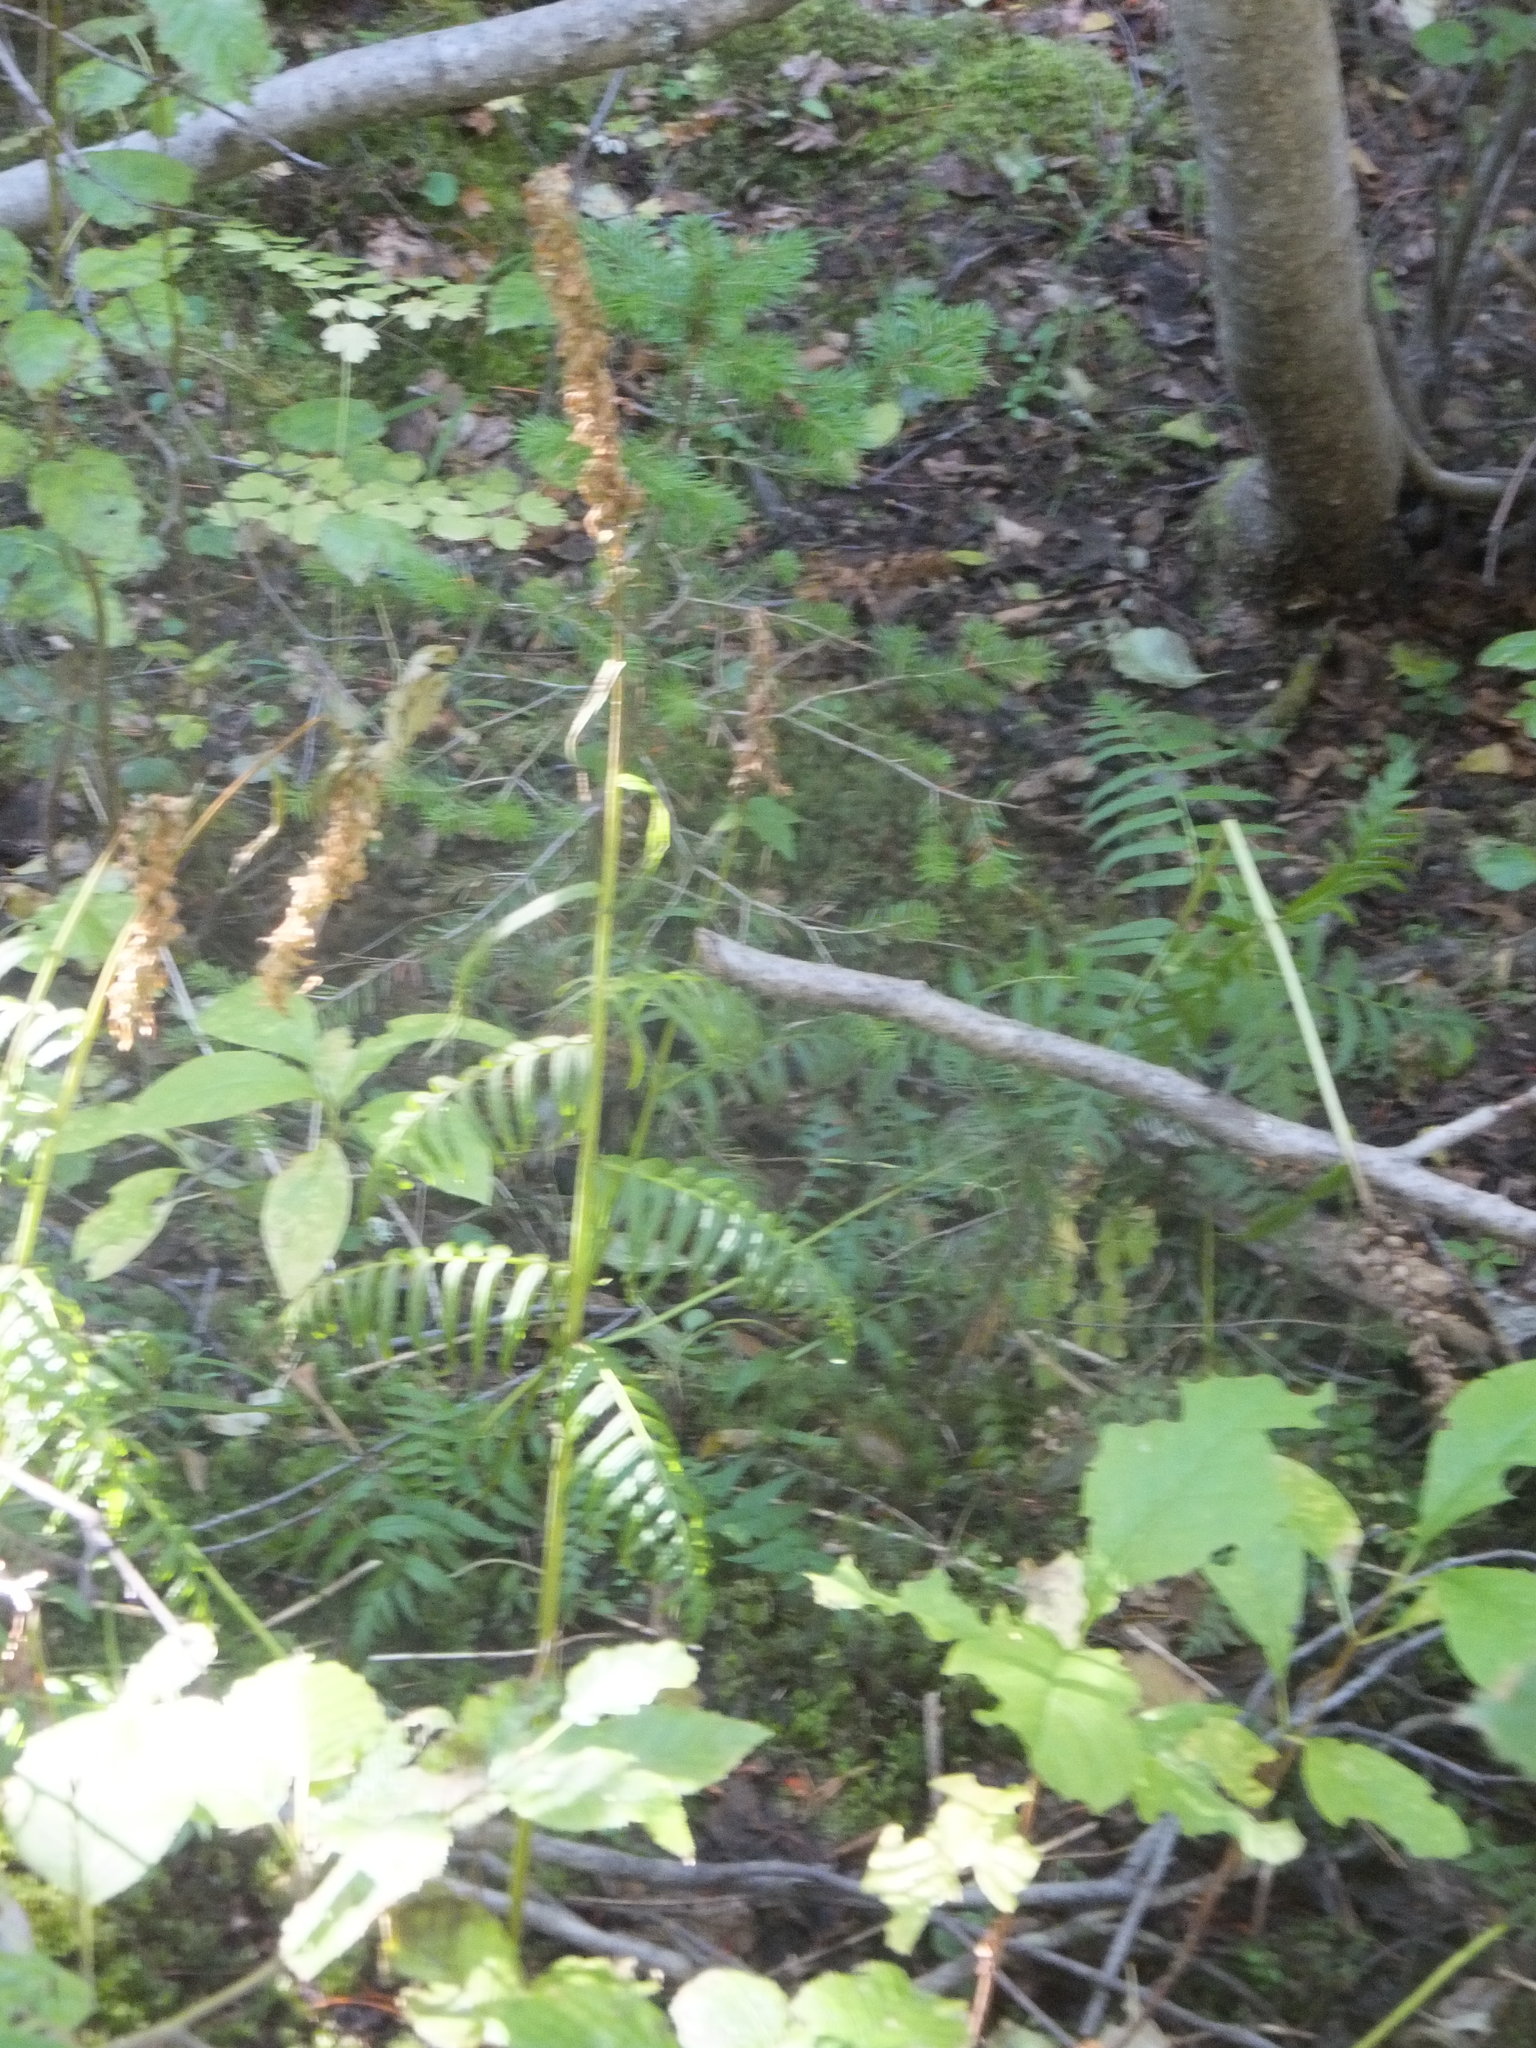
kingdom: Plantae
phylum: Tracheophyta
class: Magnoliopsida
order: Lamiales
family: Orobanchaceae
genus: Pedicularis
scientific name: Pedicularis bracteosa
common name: Bracted lousewort
